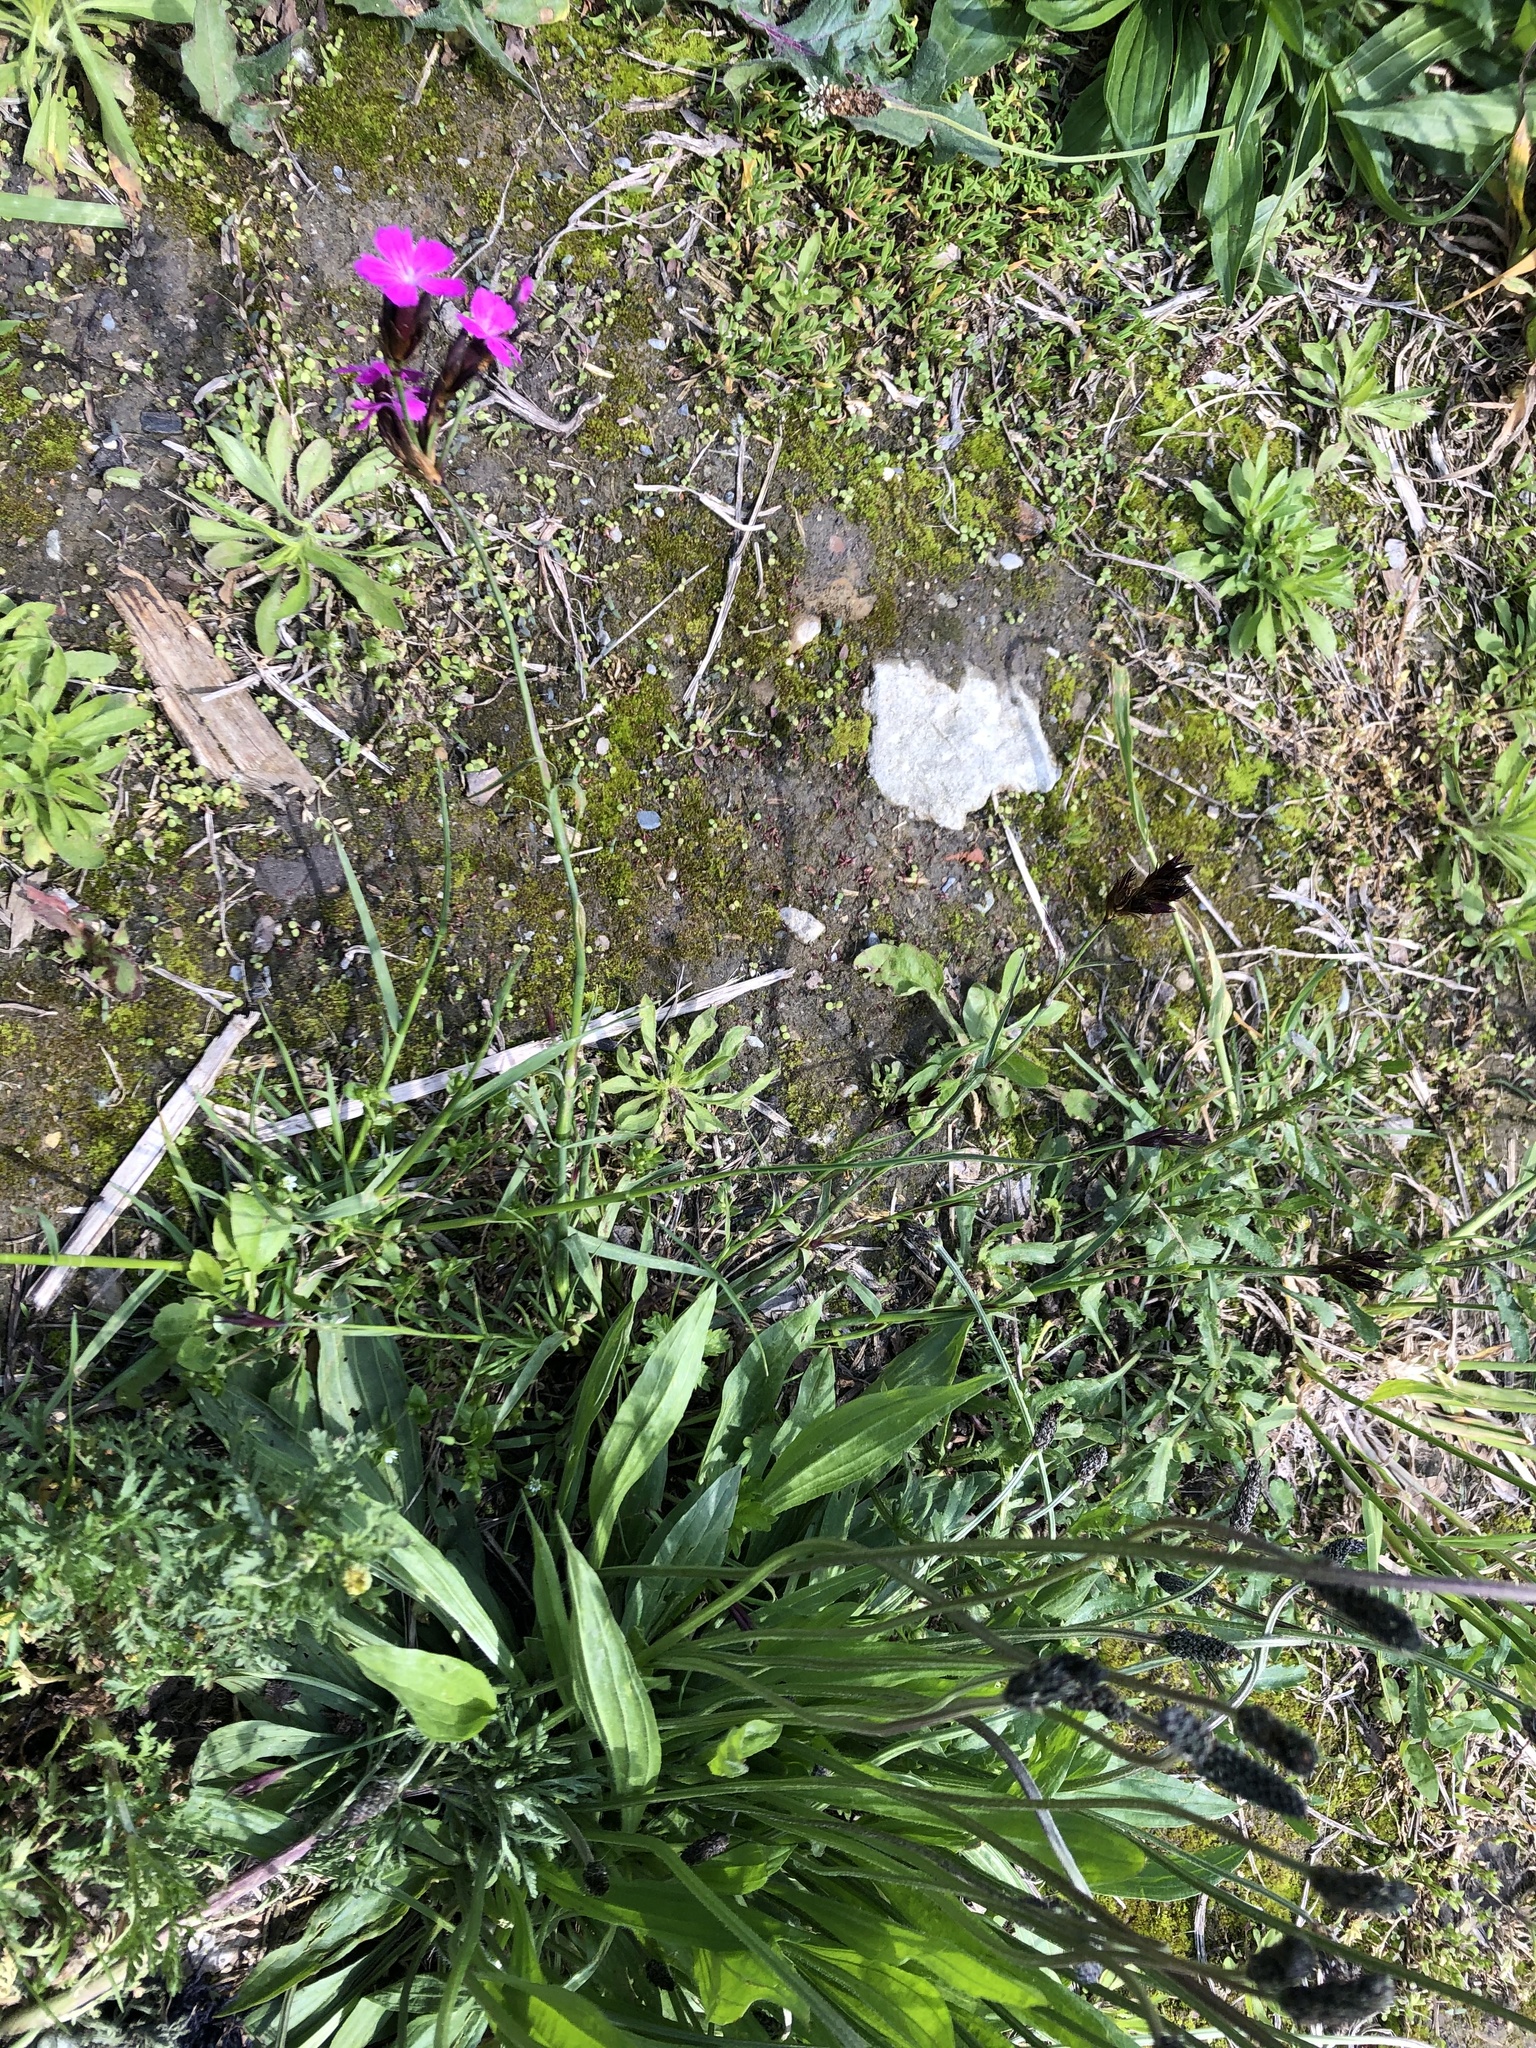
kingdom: Plantae
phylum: Tracheophyta
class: Magnoliopsida
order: Caryophyllales
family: Caryophyllaceae
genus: Dianthus
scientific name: Dianthus carthusianorum
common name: Carthusian pink
